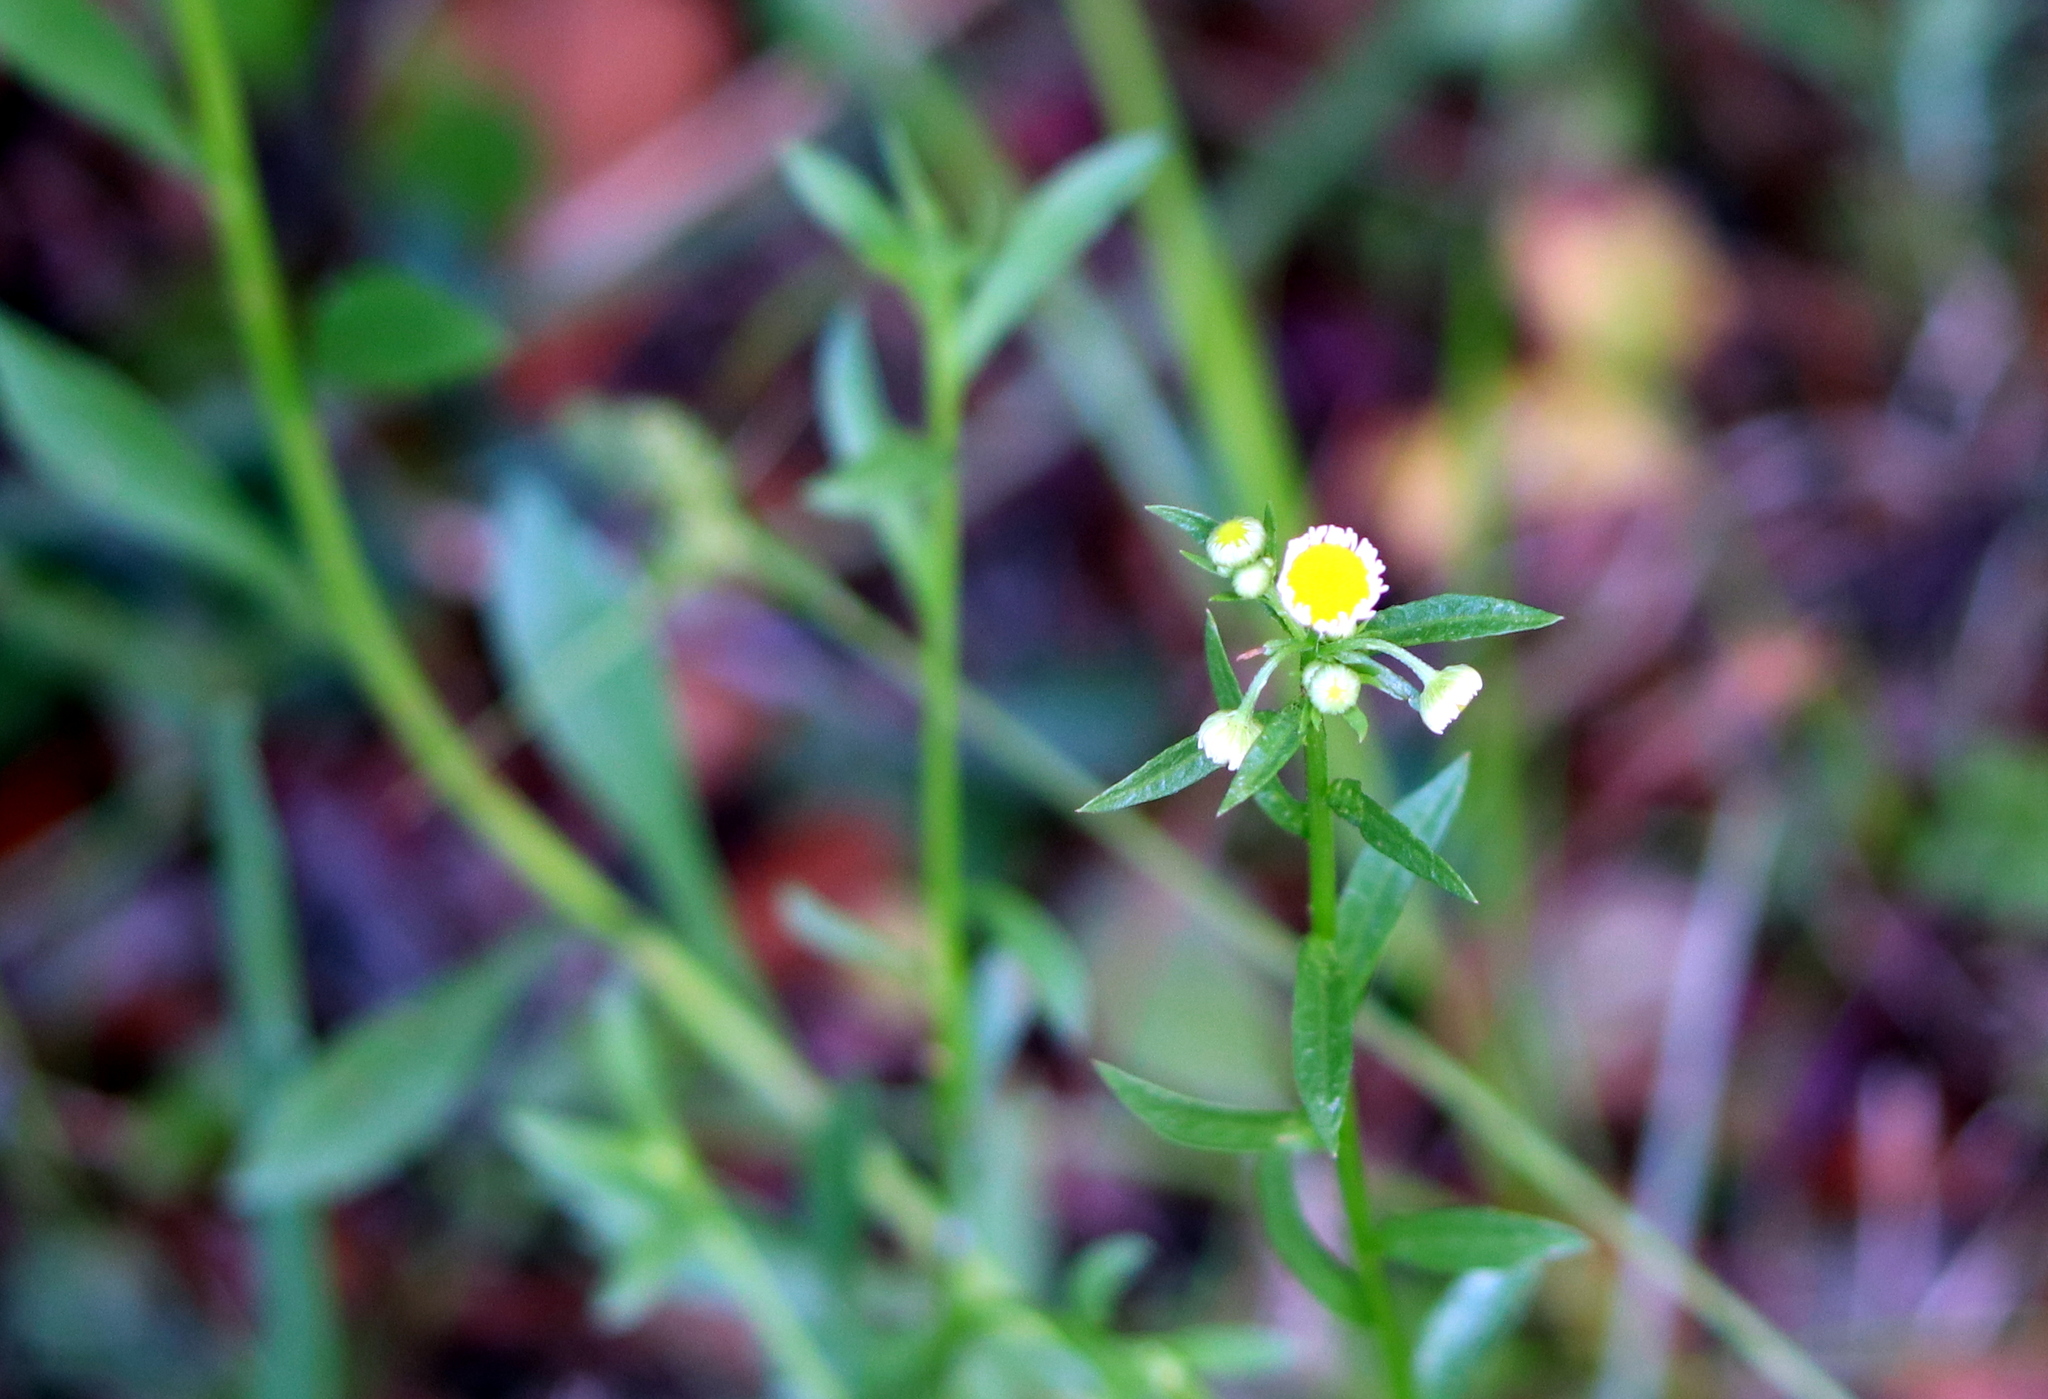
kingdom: Plantae
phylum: Tracheophyta
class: Magnoliopsida
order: Asterales
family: Asteraceae
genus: Erigeron
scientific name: Erigeron annuus
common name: Tall fleabane
